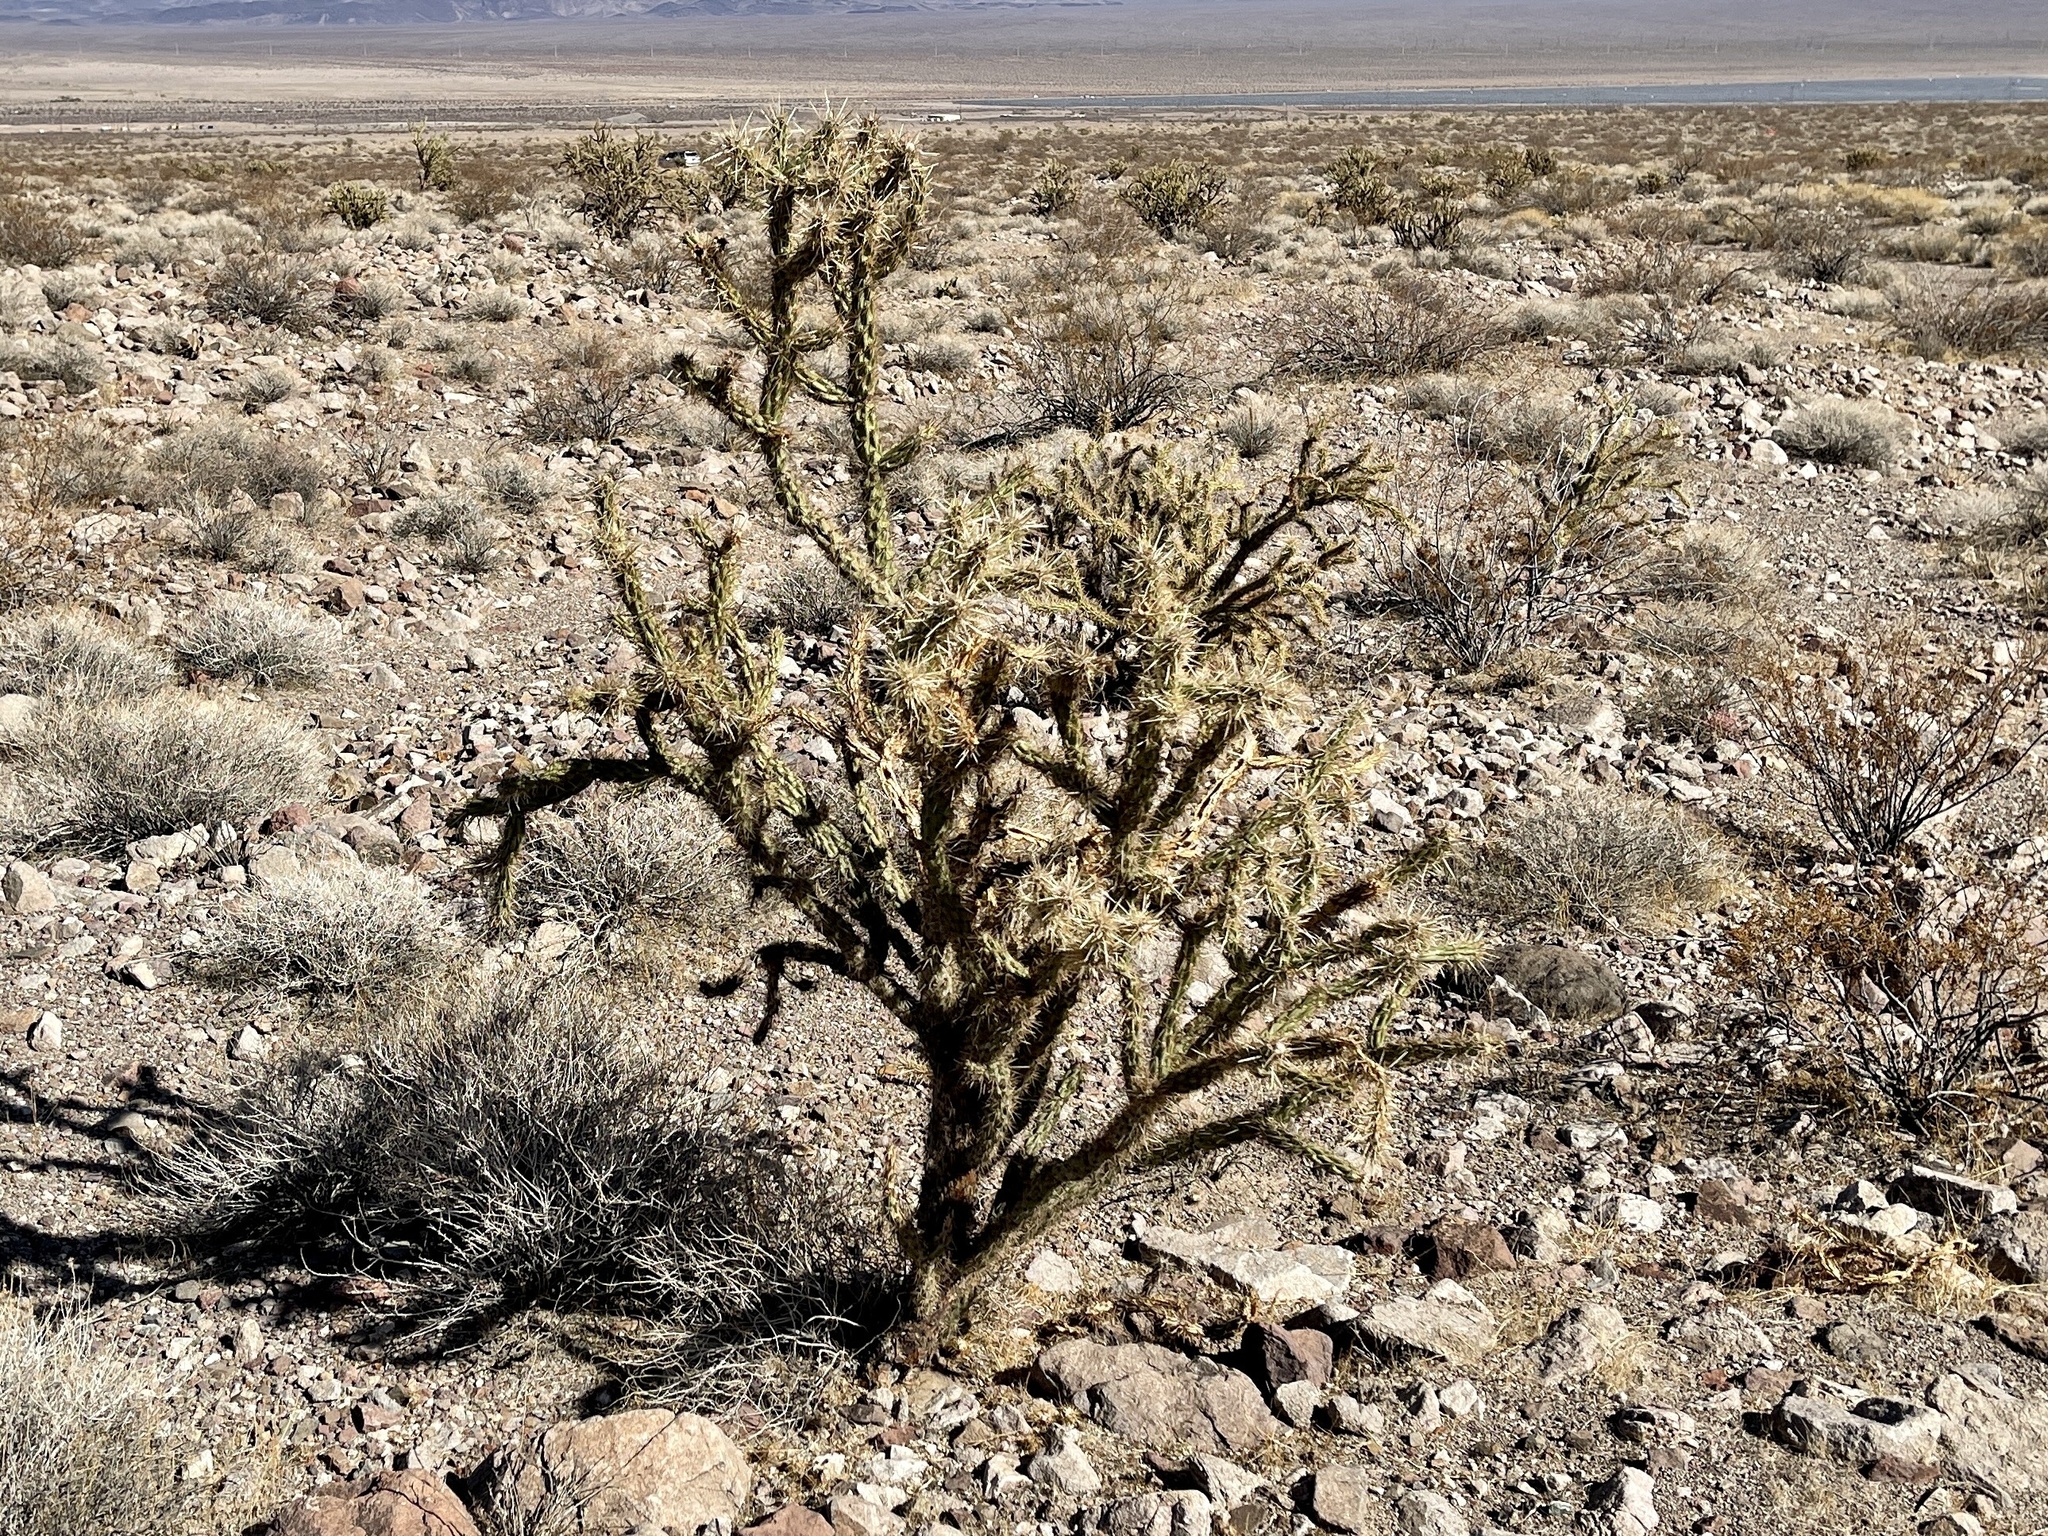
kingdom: Plantae
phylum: Tracheophyta
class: Magnoliopsida
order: Caryophyllales
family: Cactaceae
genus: Cylindropuntia
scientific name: Cylindropuntia acanthocarpa
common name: Buckhorn cholla
